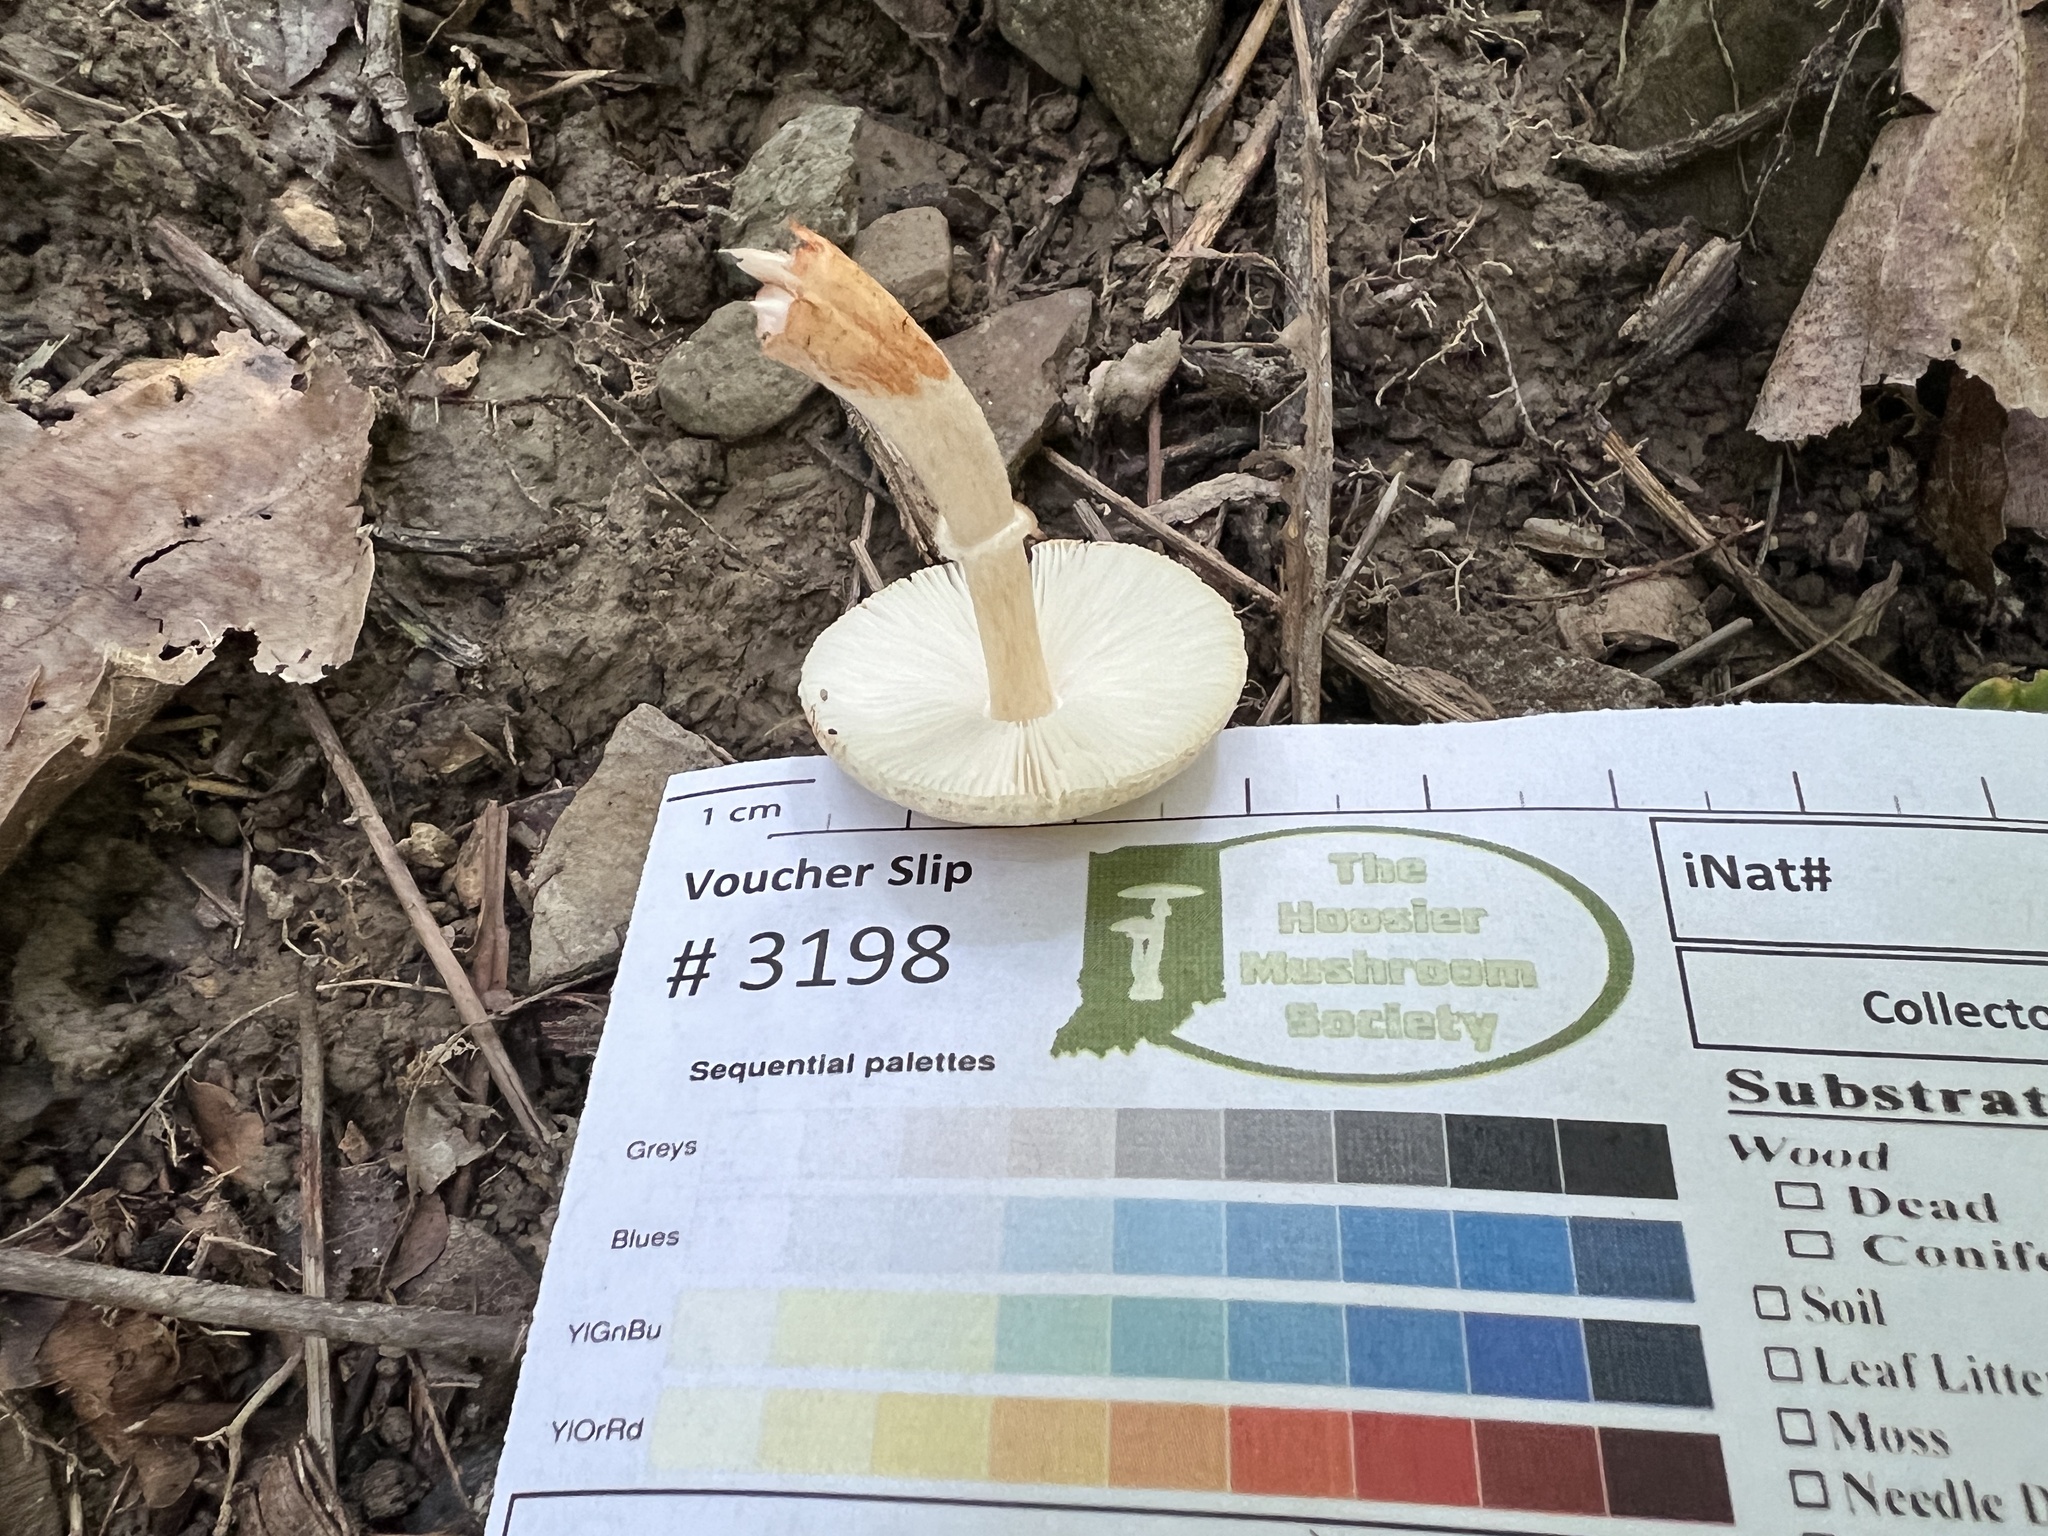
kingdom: Fungi
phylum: Basidiomycota
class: Agaricomycetes
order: Agaricales
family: Agaricaceae
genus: Lepiota
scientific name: Lepiota flammeotincta
